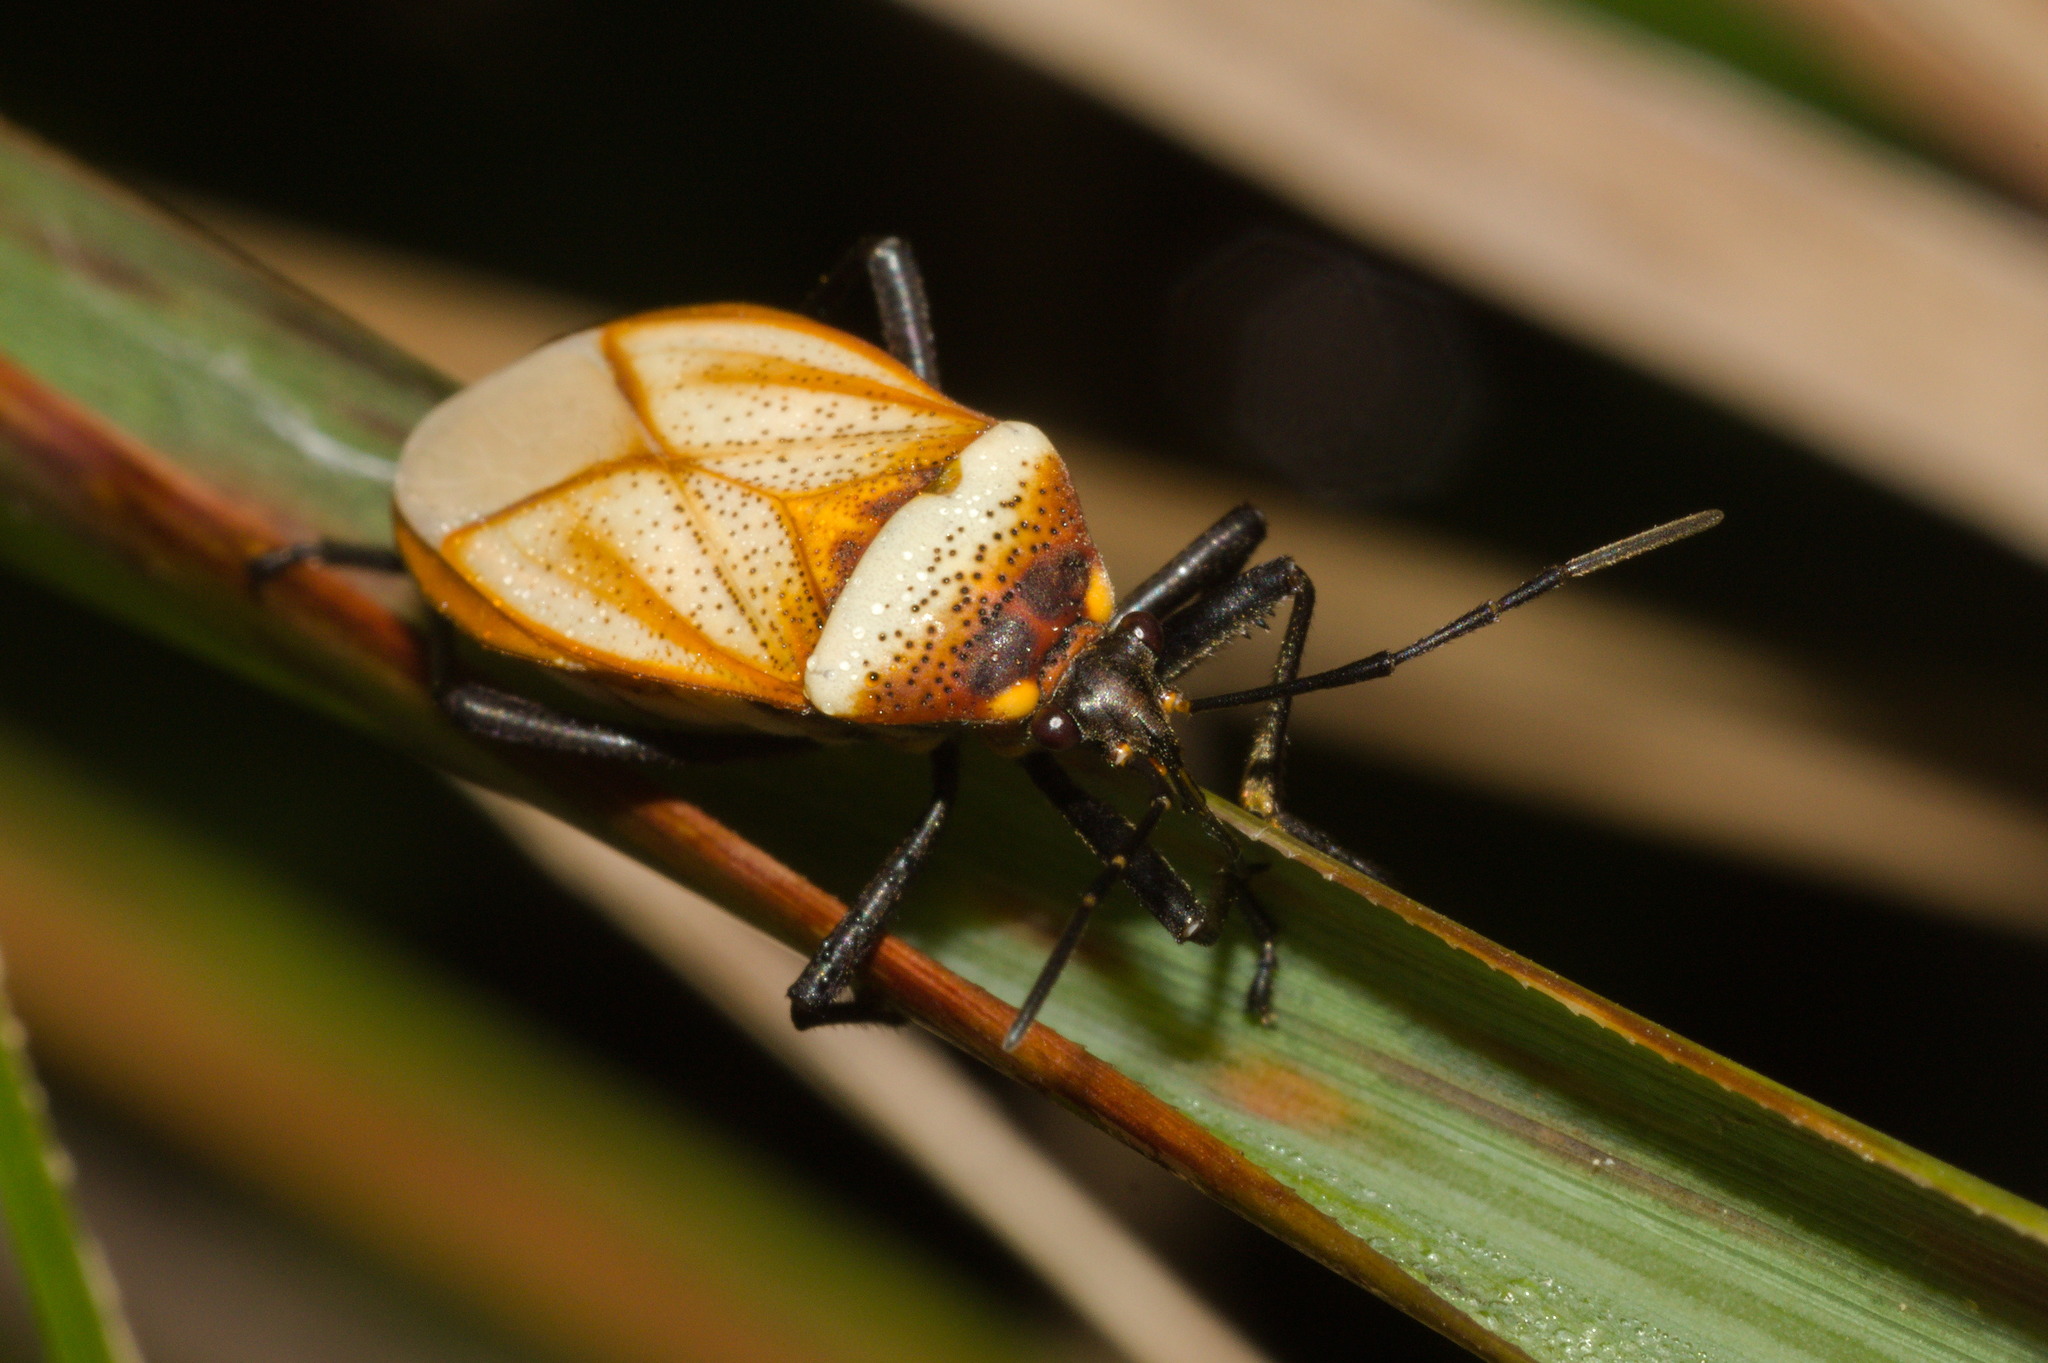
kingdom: Animalia
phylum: Arthropoda
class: Insecta
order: Hemiptera
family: Largidae
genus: Largus
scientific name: Largus trochanterus
